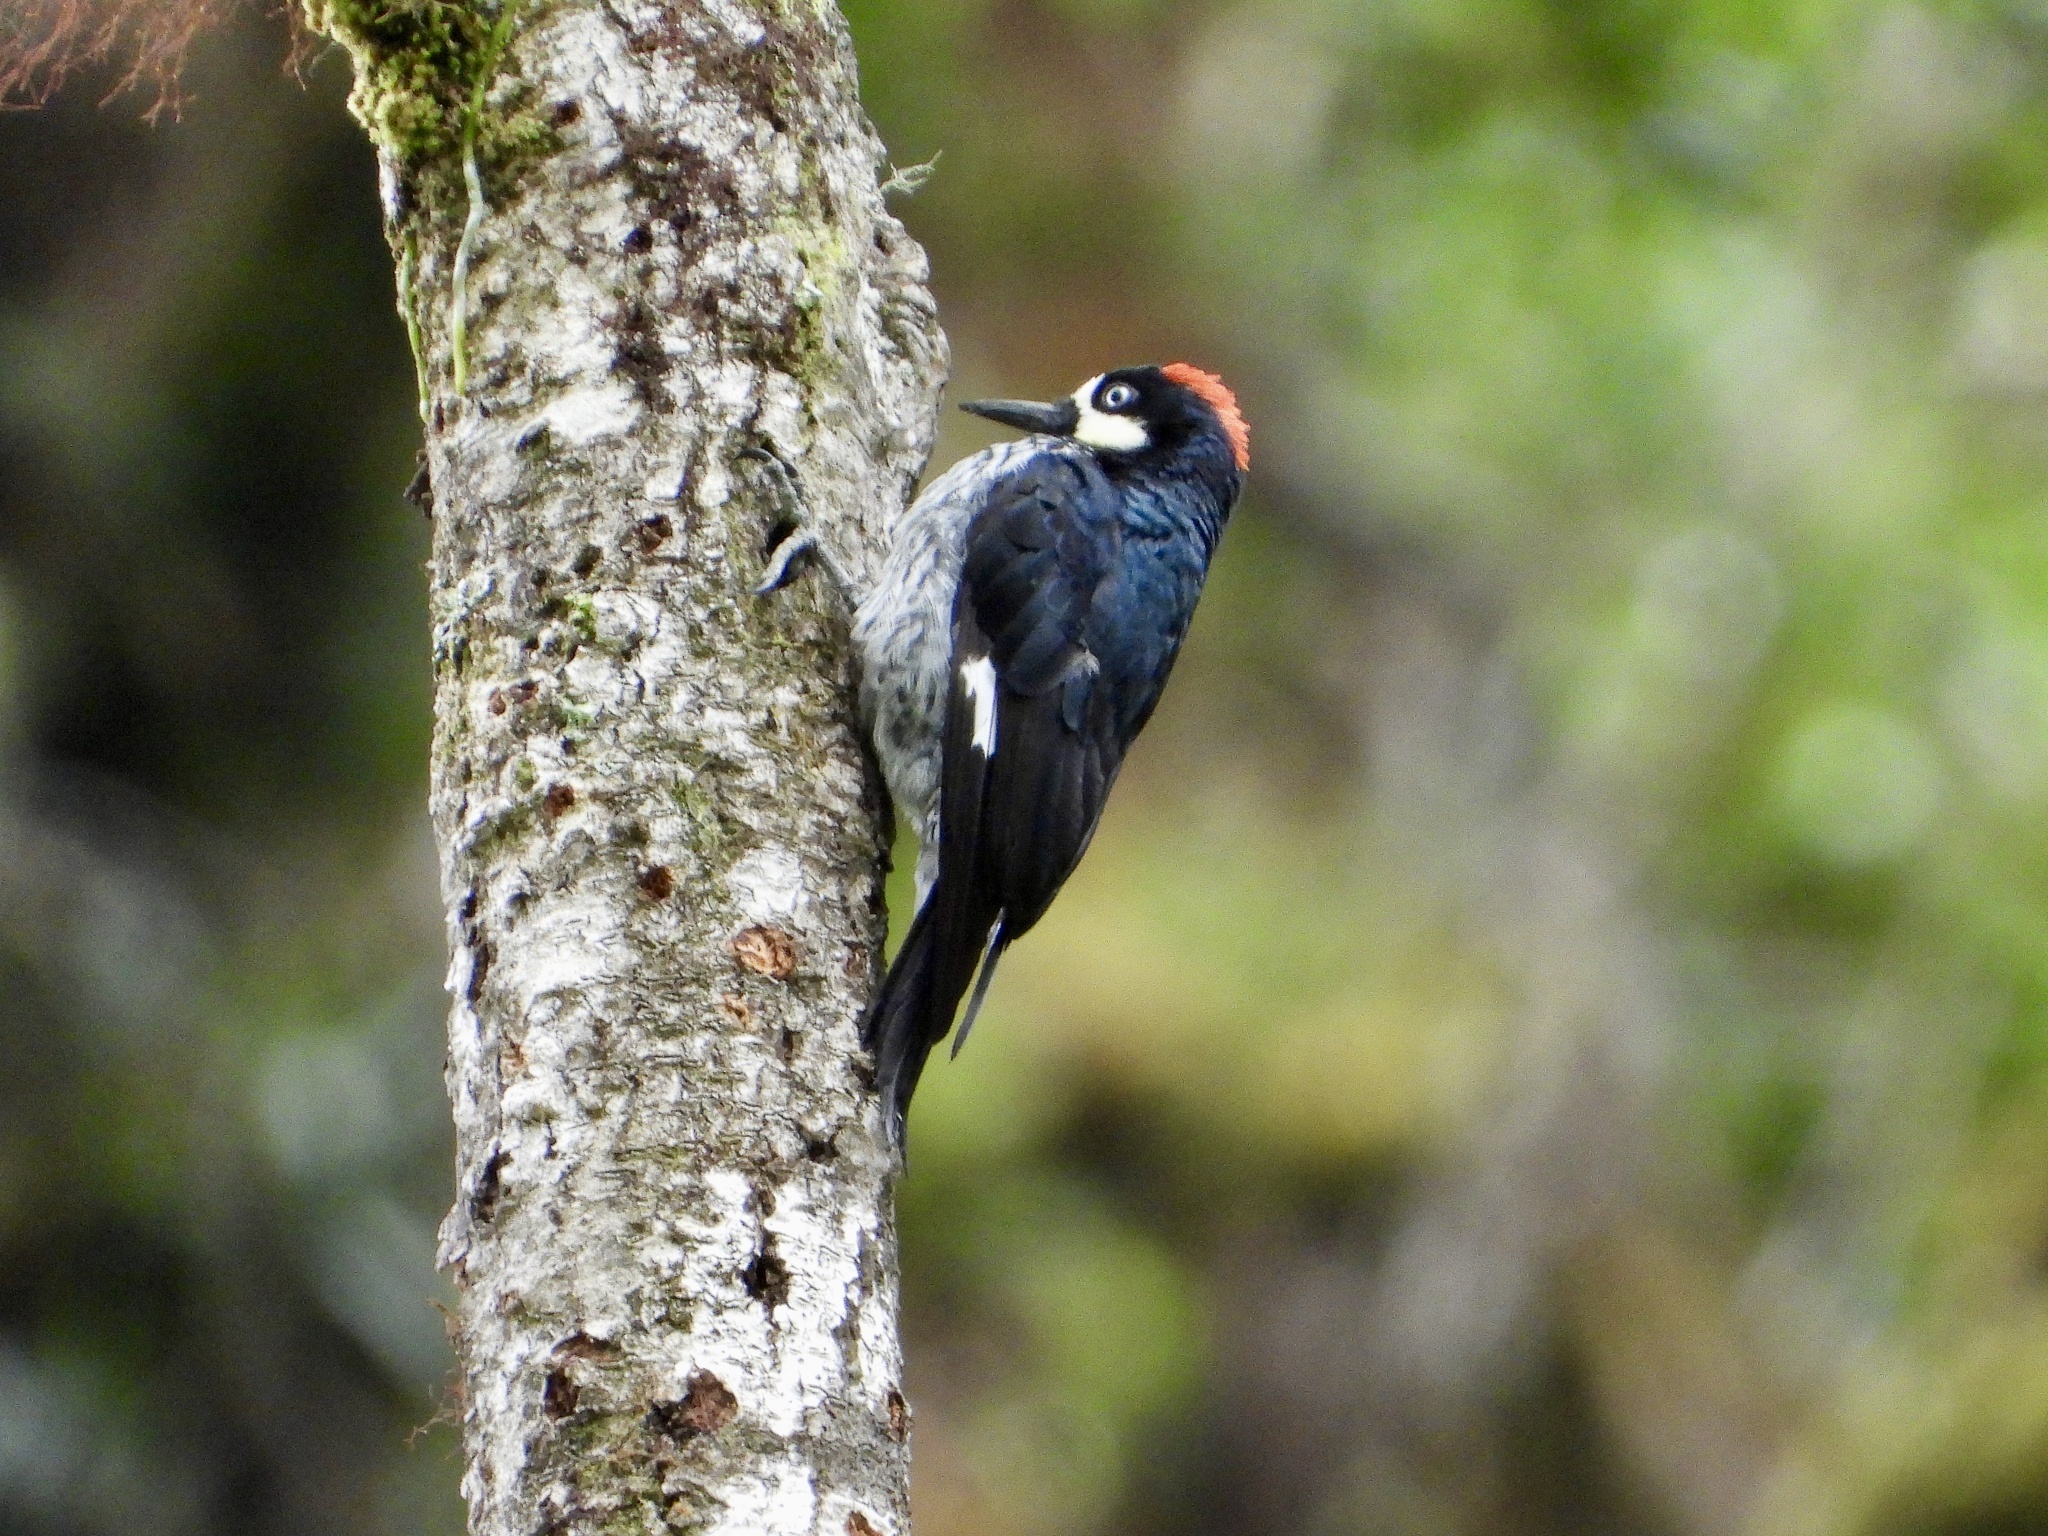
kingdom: Animalia
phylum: Chordata
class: Aves
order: Piciformes
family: Picidae
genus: Melanerpes
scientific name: Melanerpes formicivorus
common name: Acorn woodpecker
